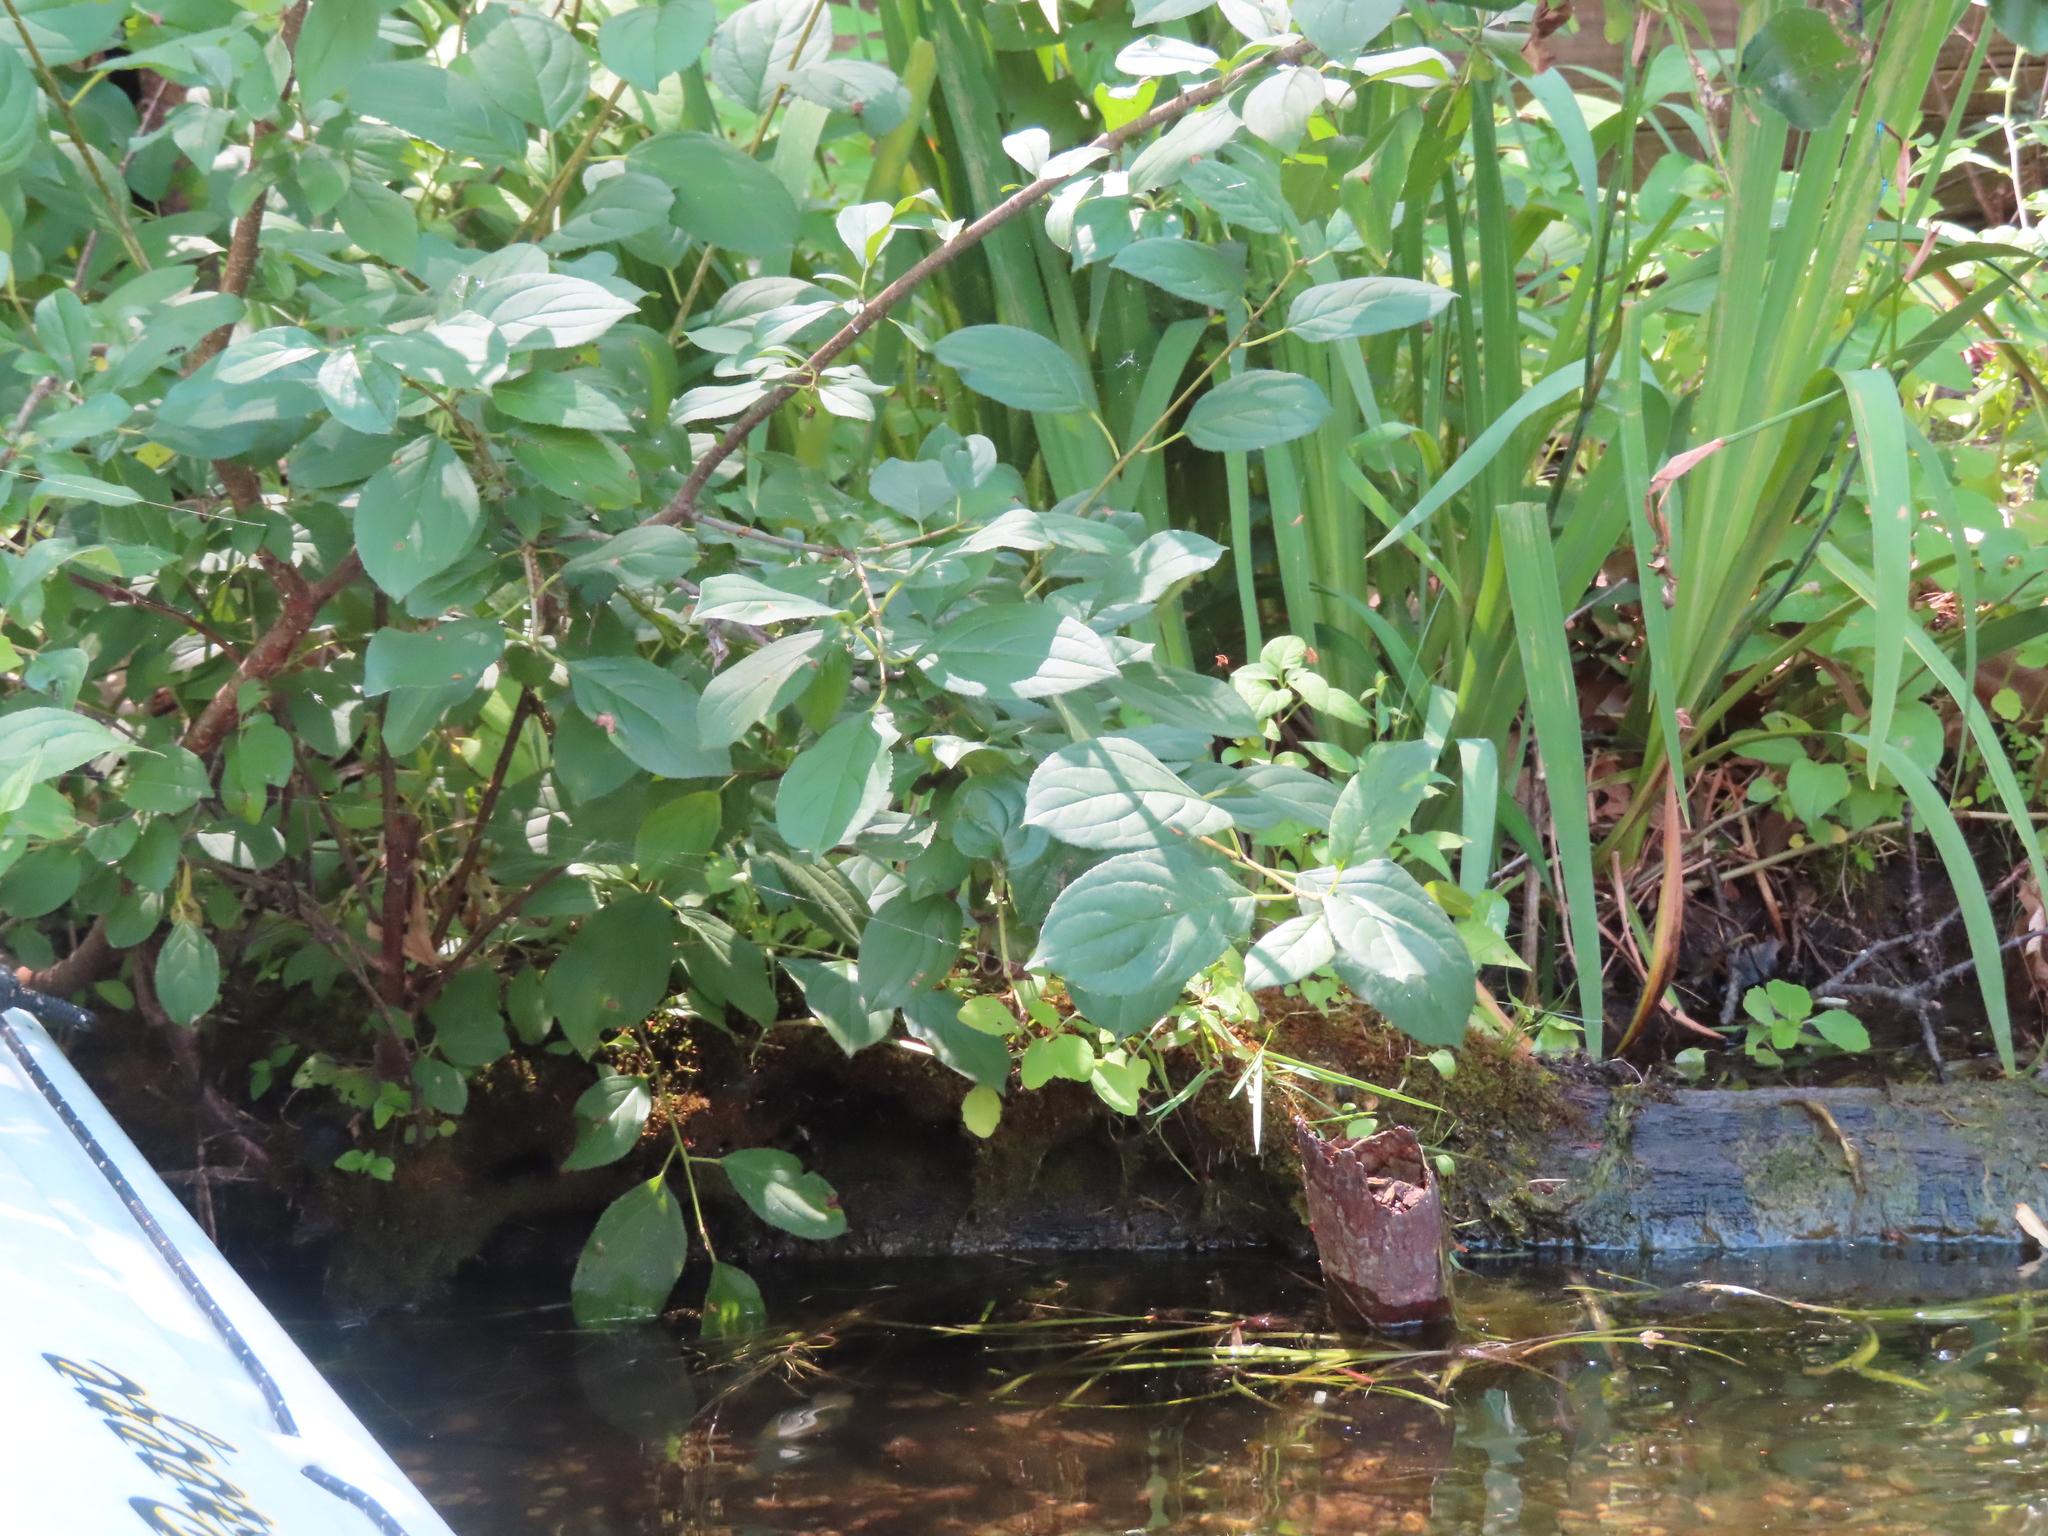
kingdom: Plantae
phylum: Tracheophyta
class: Magnoliopsida
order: Rosales
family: Rhamnaceae
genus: Rhamnus
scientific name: Rhamnus cathartica
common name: Common buckthorn
